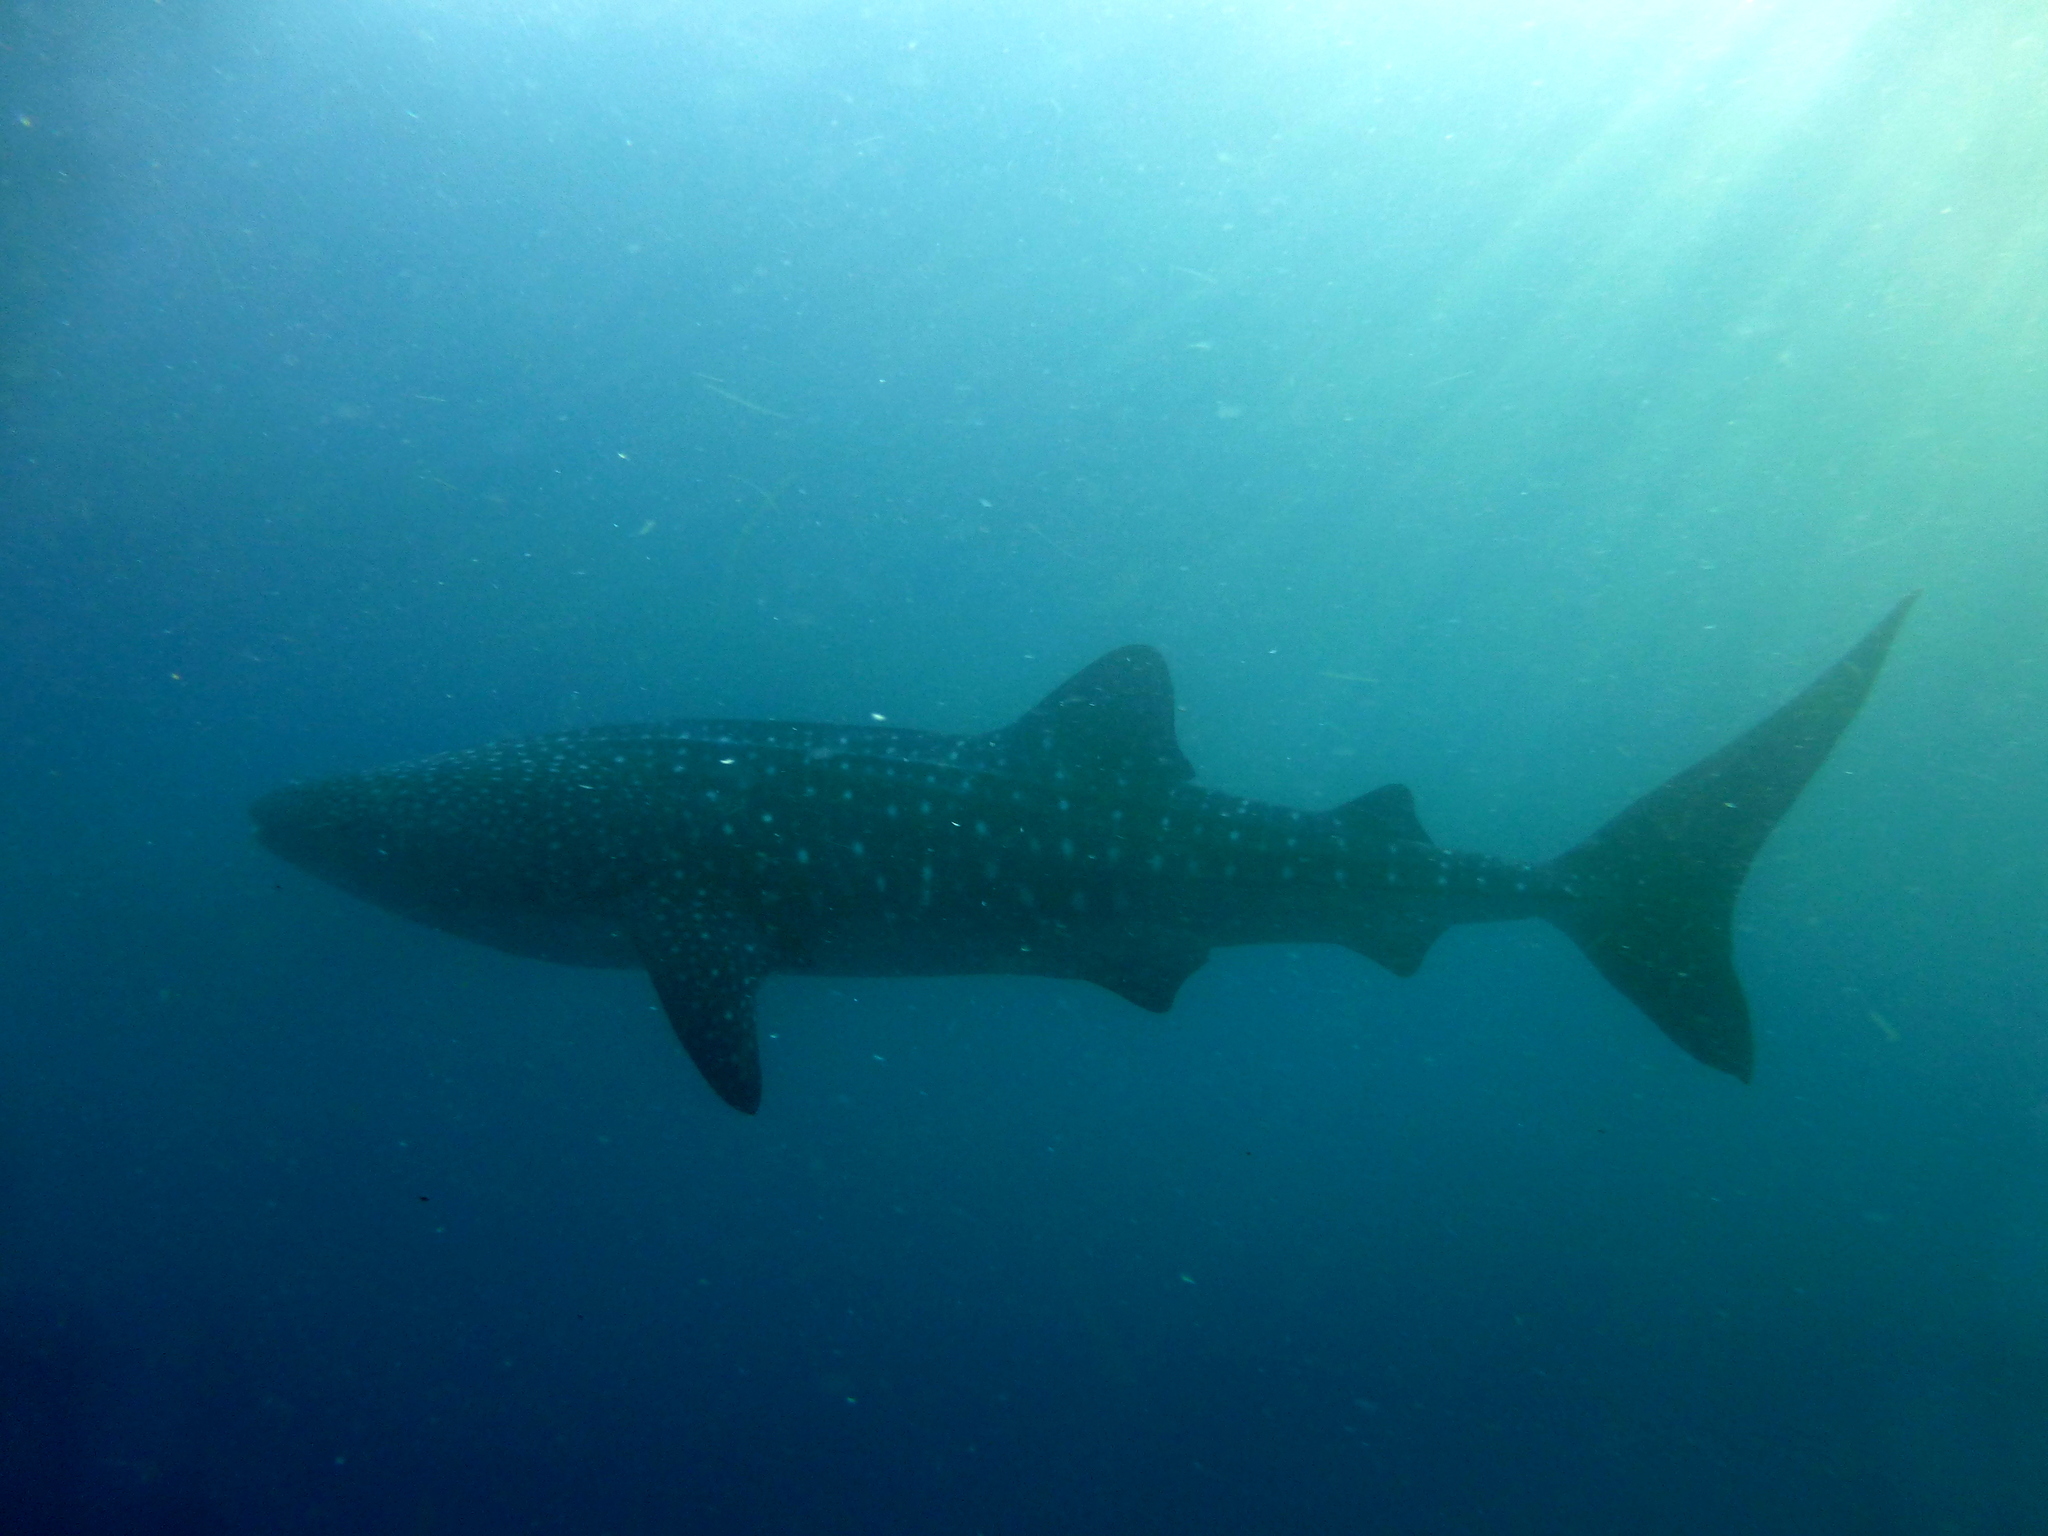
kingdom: Animalia
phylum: Chordata
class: Elasmobranchii
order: Orectolobiformes
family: Rhincodontidae
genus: Rhincodon
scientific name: Rhincodon typus
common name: Whale shark
